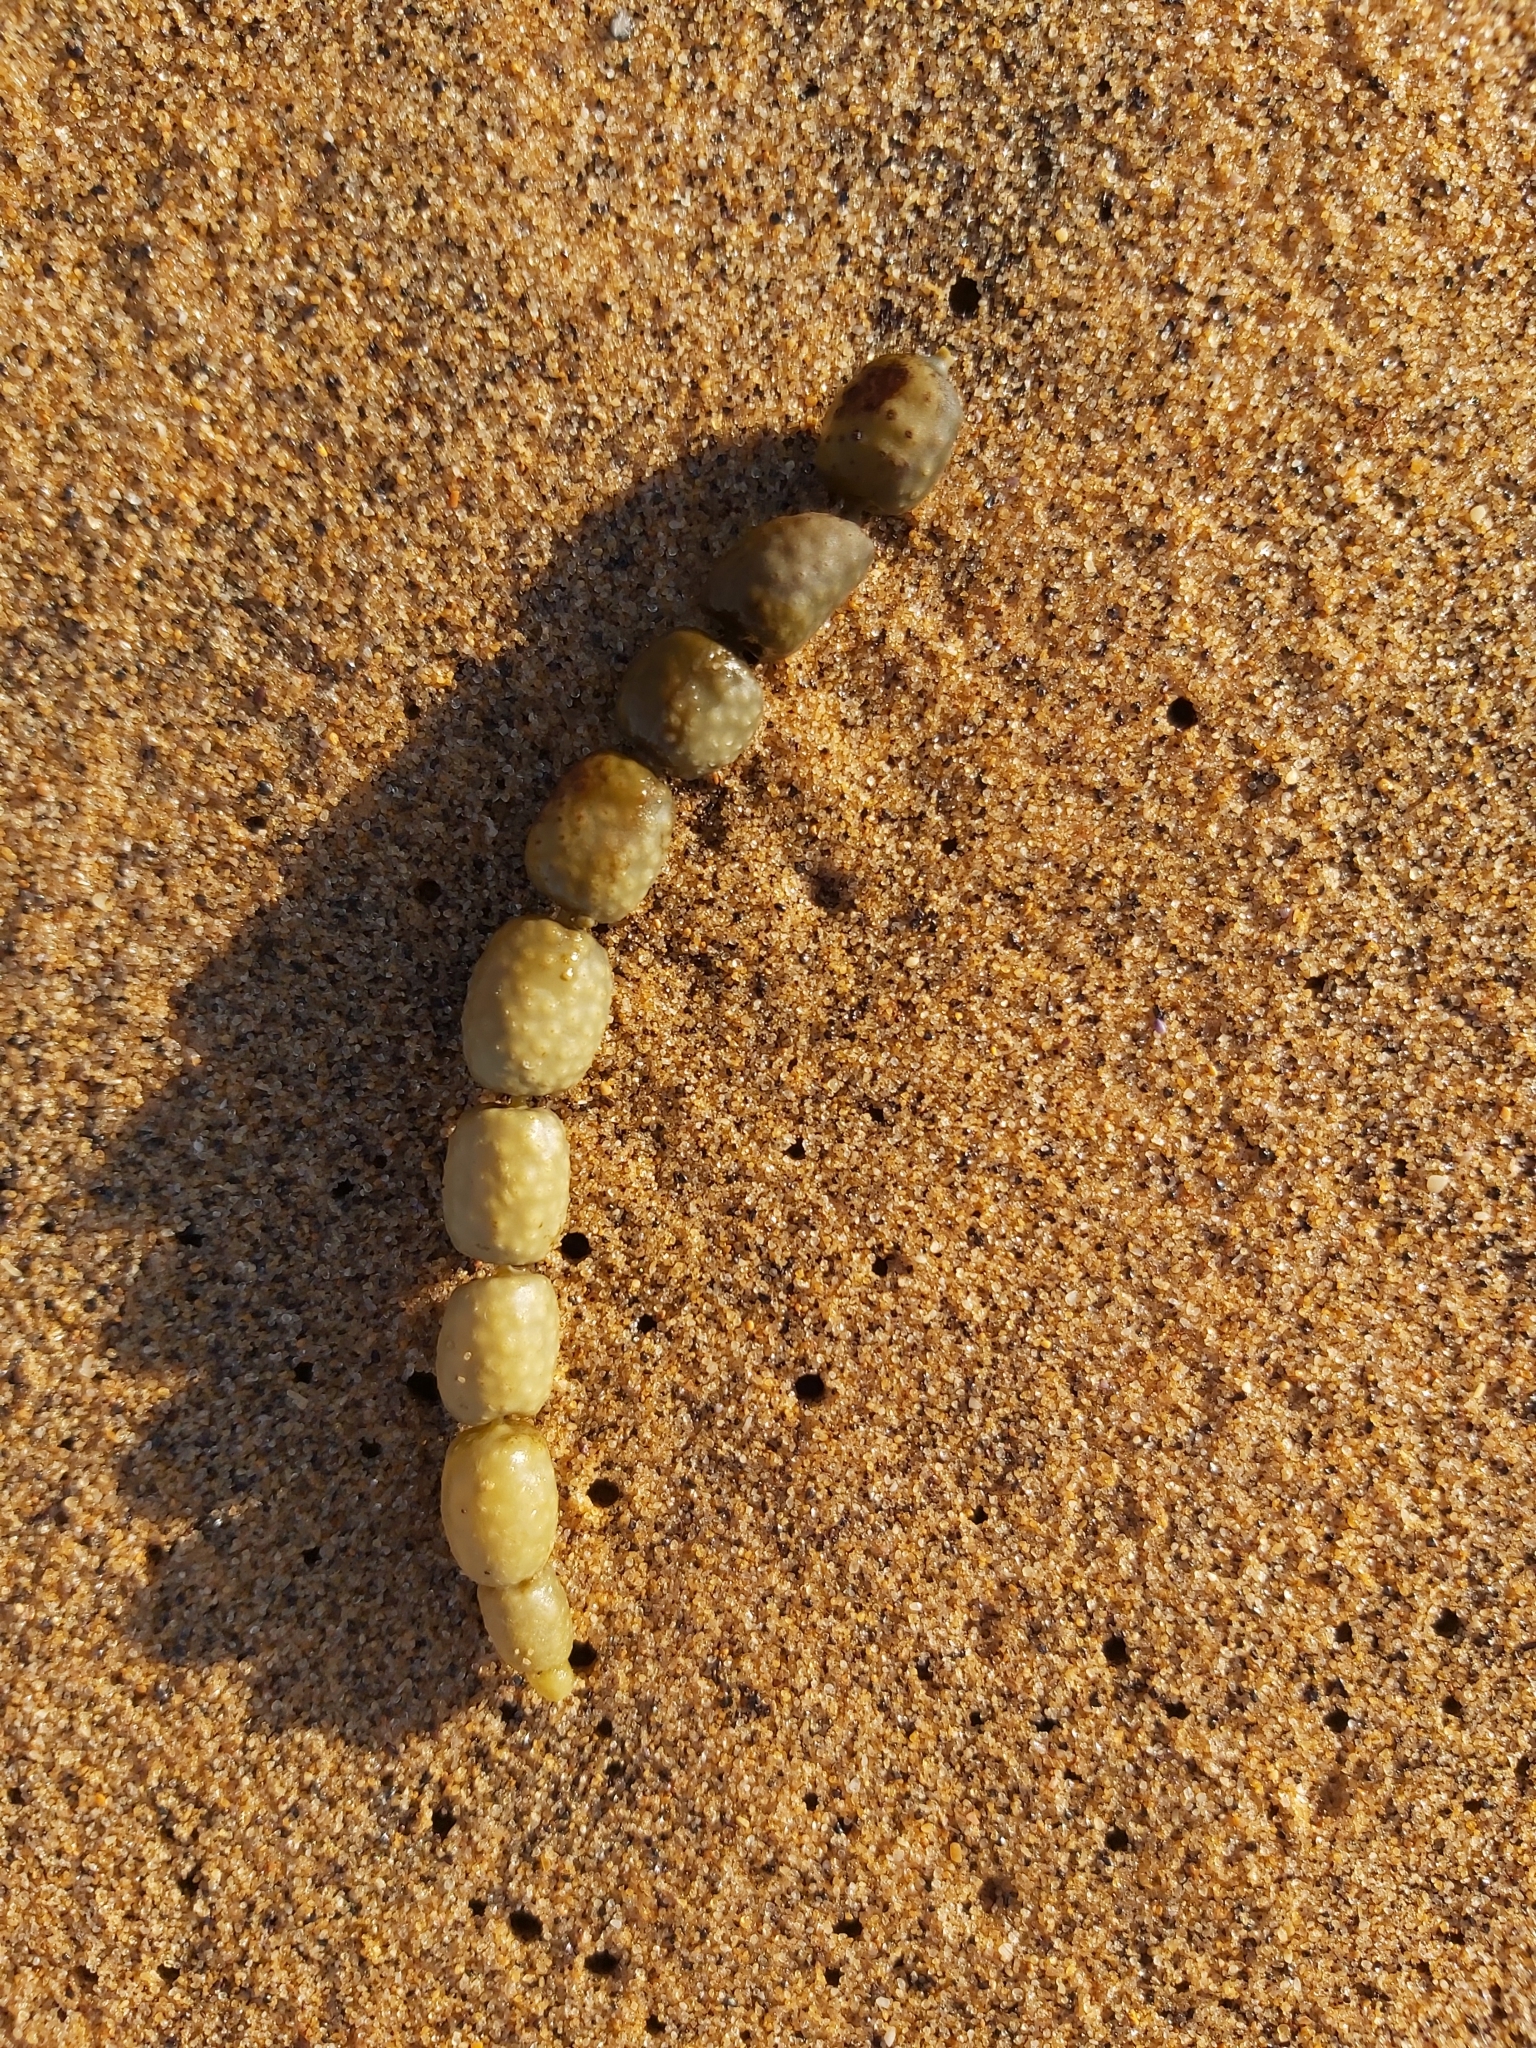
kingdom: Chromista
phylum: Ochrophyta
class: Phaeophyceae
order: Fucales
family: Hormosiraceae
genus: Hormosira
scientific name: Hormosira banksii
